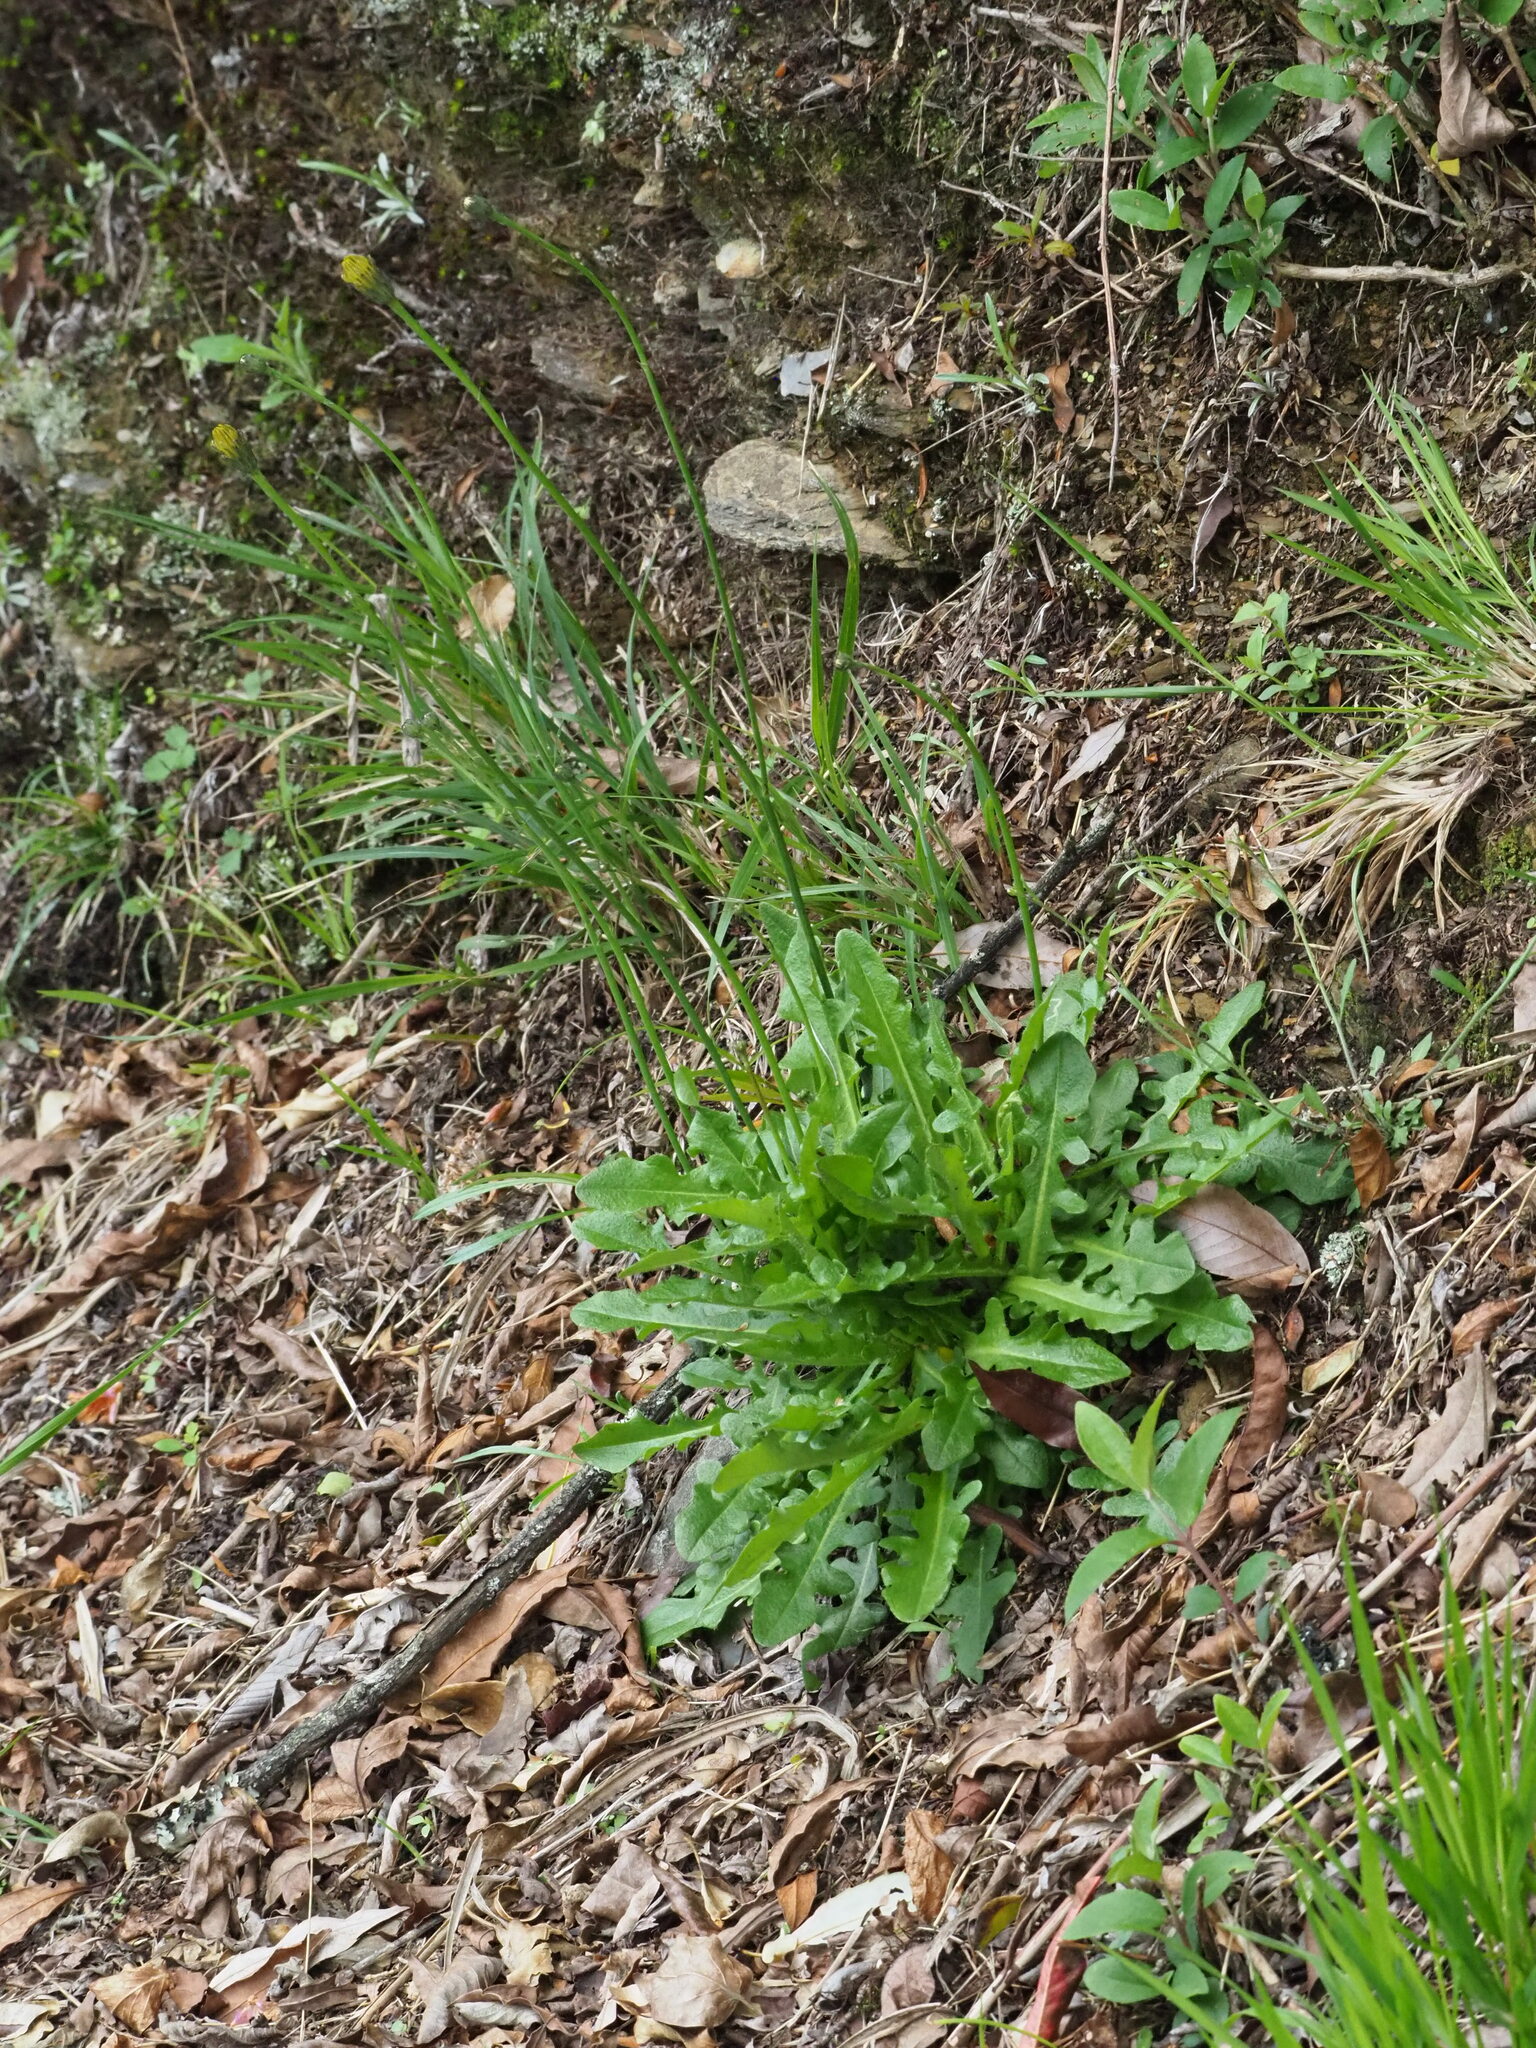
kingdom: Plantae
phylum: Tracheophyta
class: Magnoliopsida
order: Asterales
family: Asteraceae
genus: Hypochaeris
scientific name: Hypochaeris radicata
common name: Flatweed
